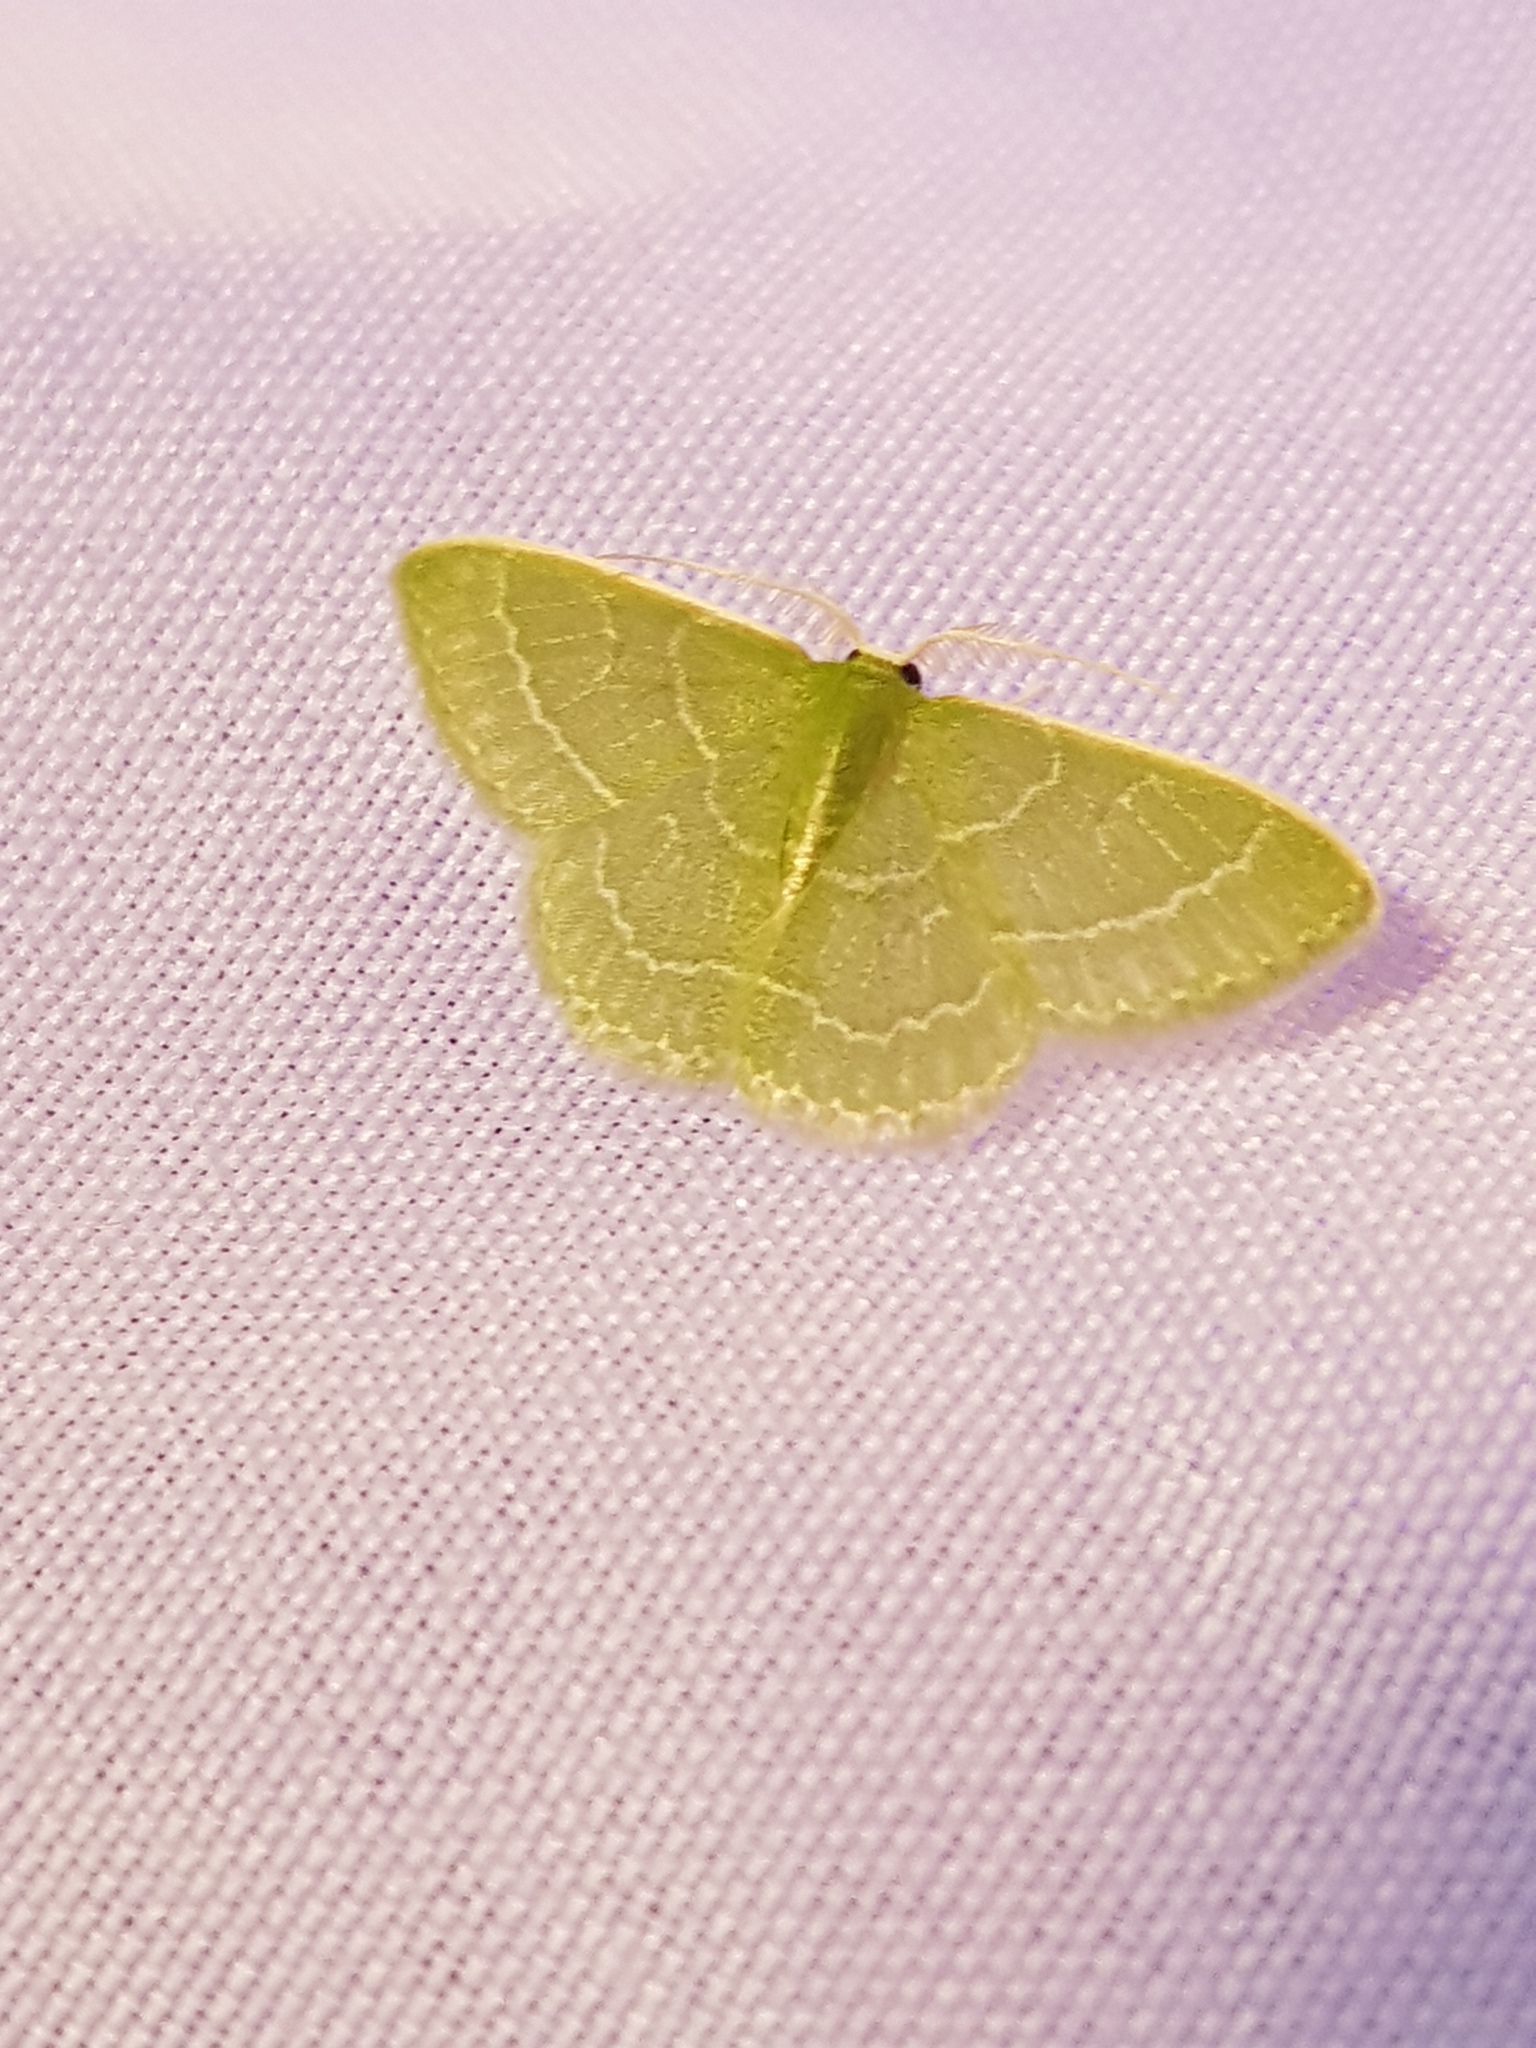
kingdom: Animalia
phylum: Arthropoda
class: Insecta
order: Lepidoptera
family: Geometridae
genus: Synchlora
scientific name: Synchlora aerata
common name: Wavy-lined emerald
